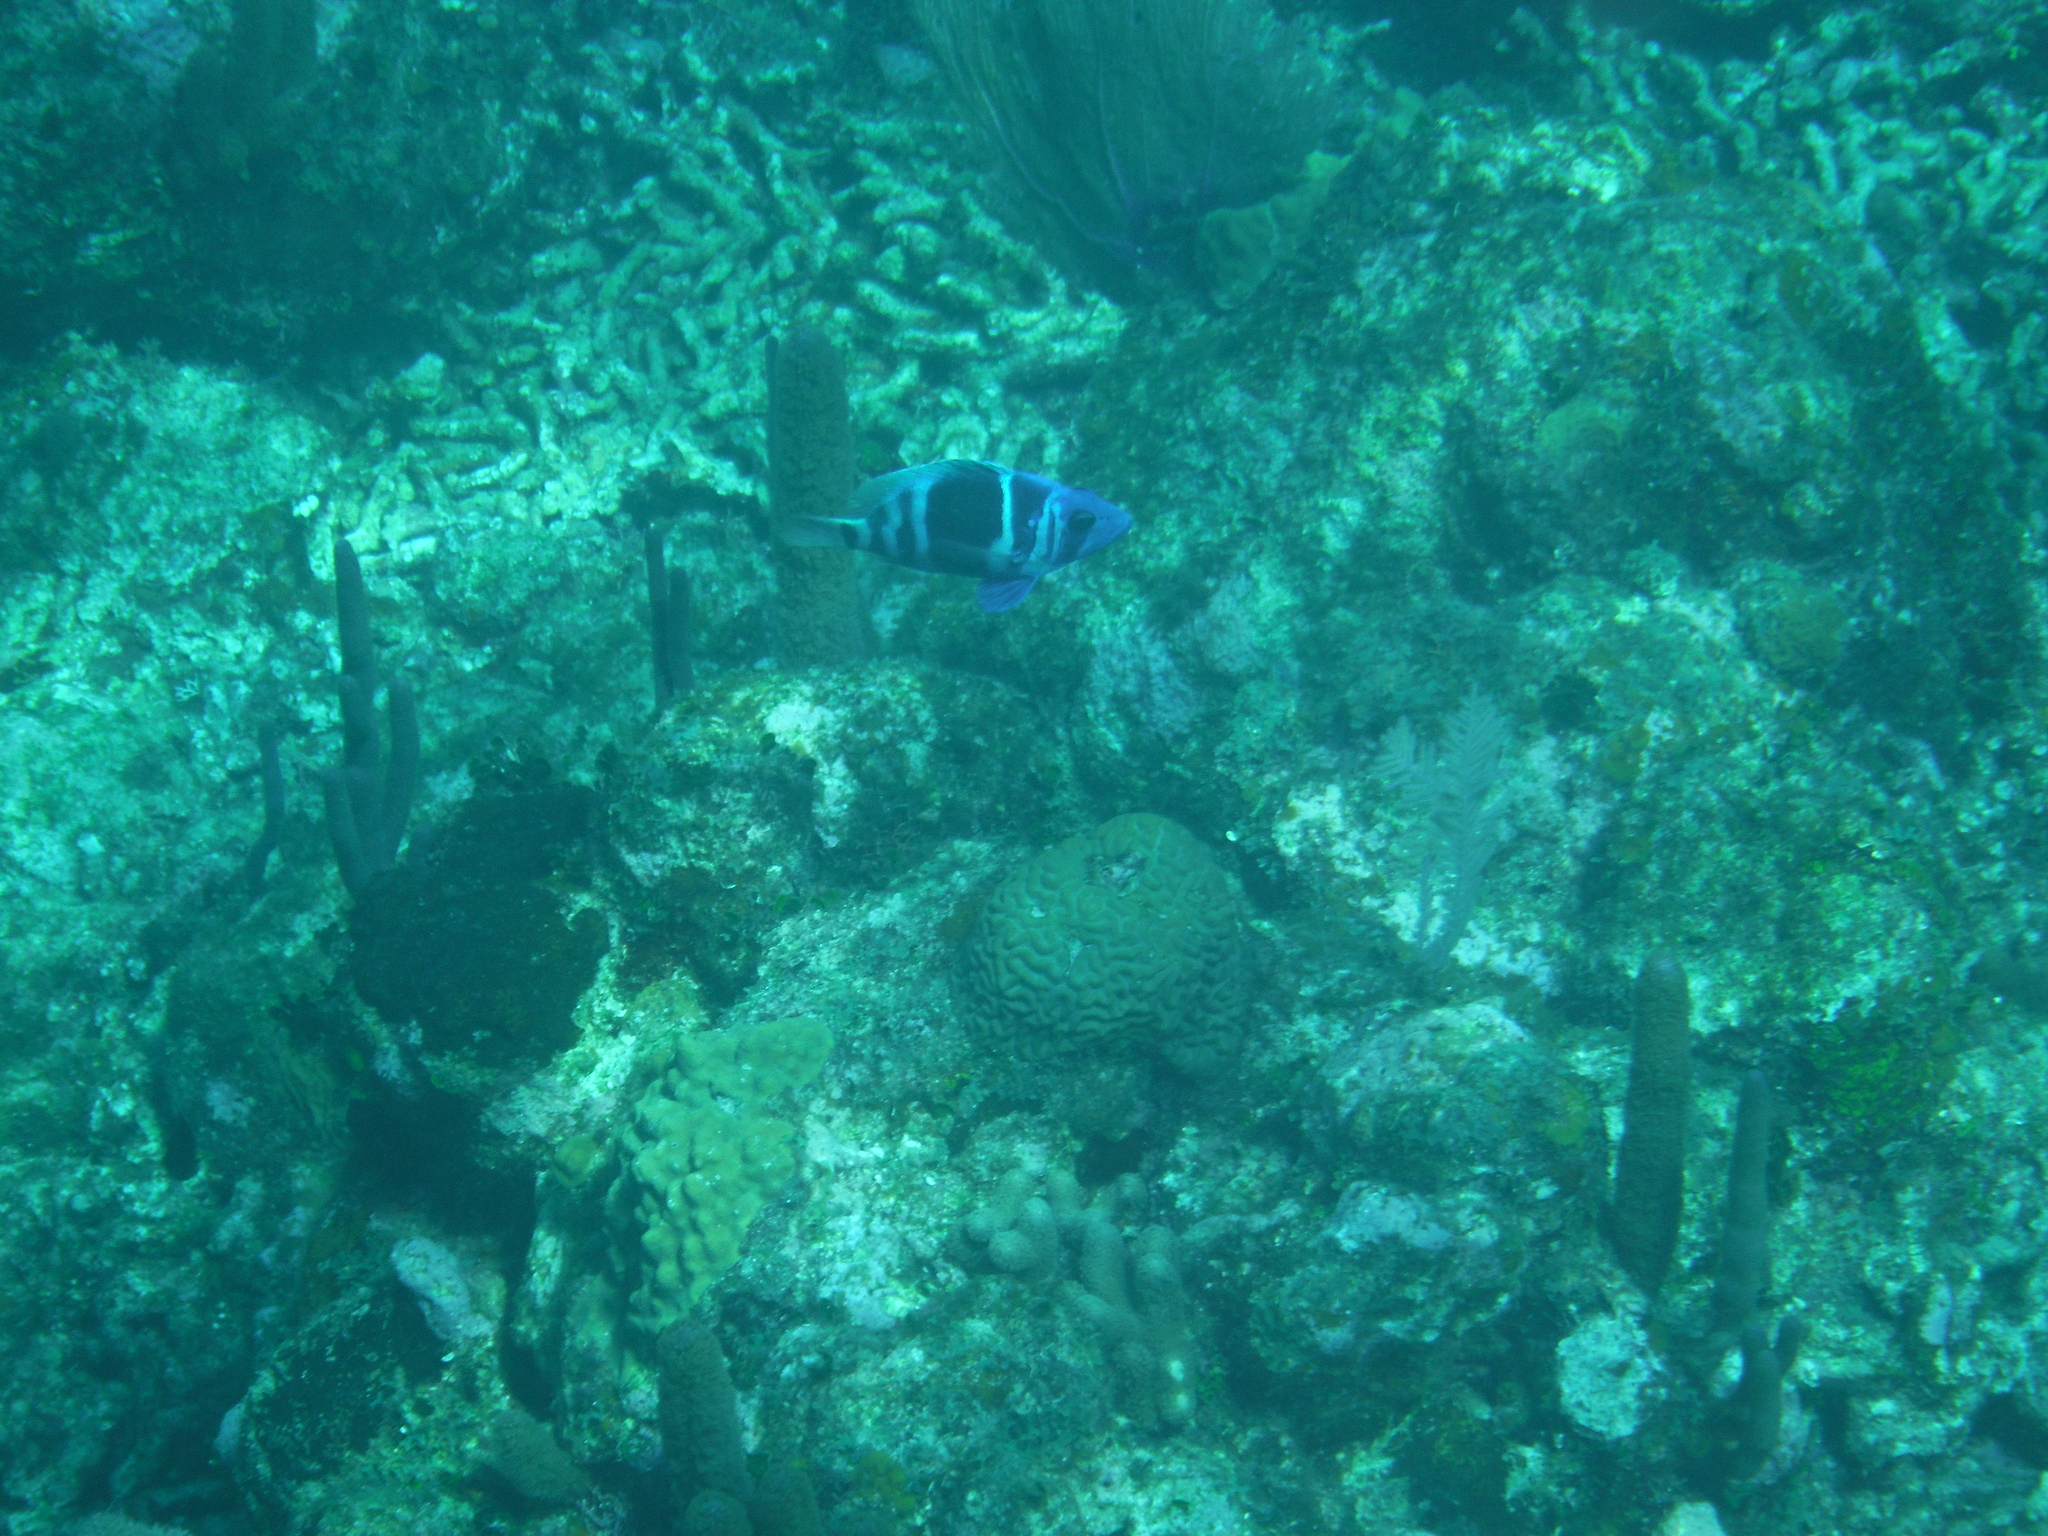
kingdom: Animalia
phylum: Chordata
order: Perciformes
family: Serranidae
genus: Hypoplectrus
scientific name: Hypoplectrus indigo
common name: Indigo hamlet
